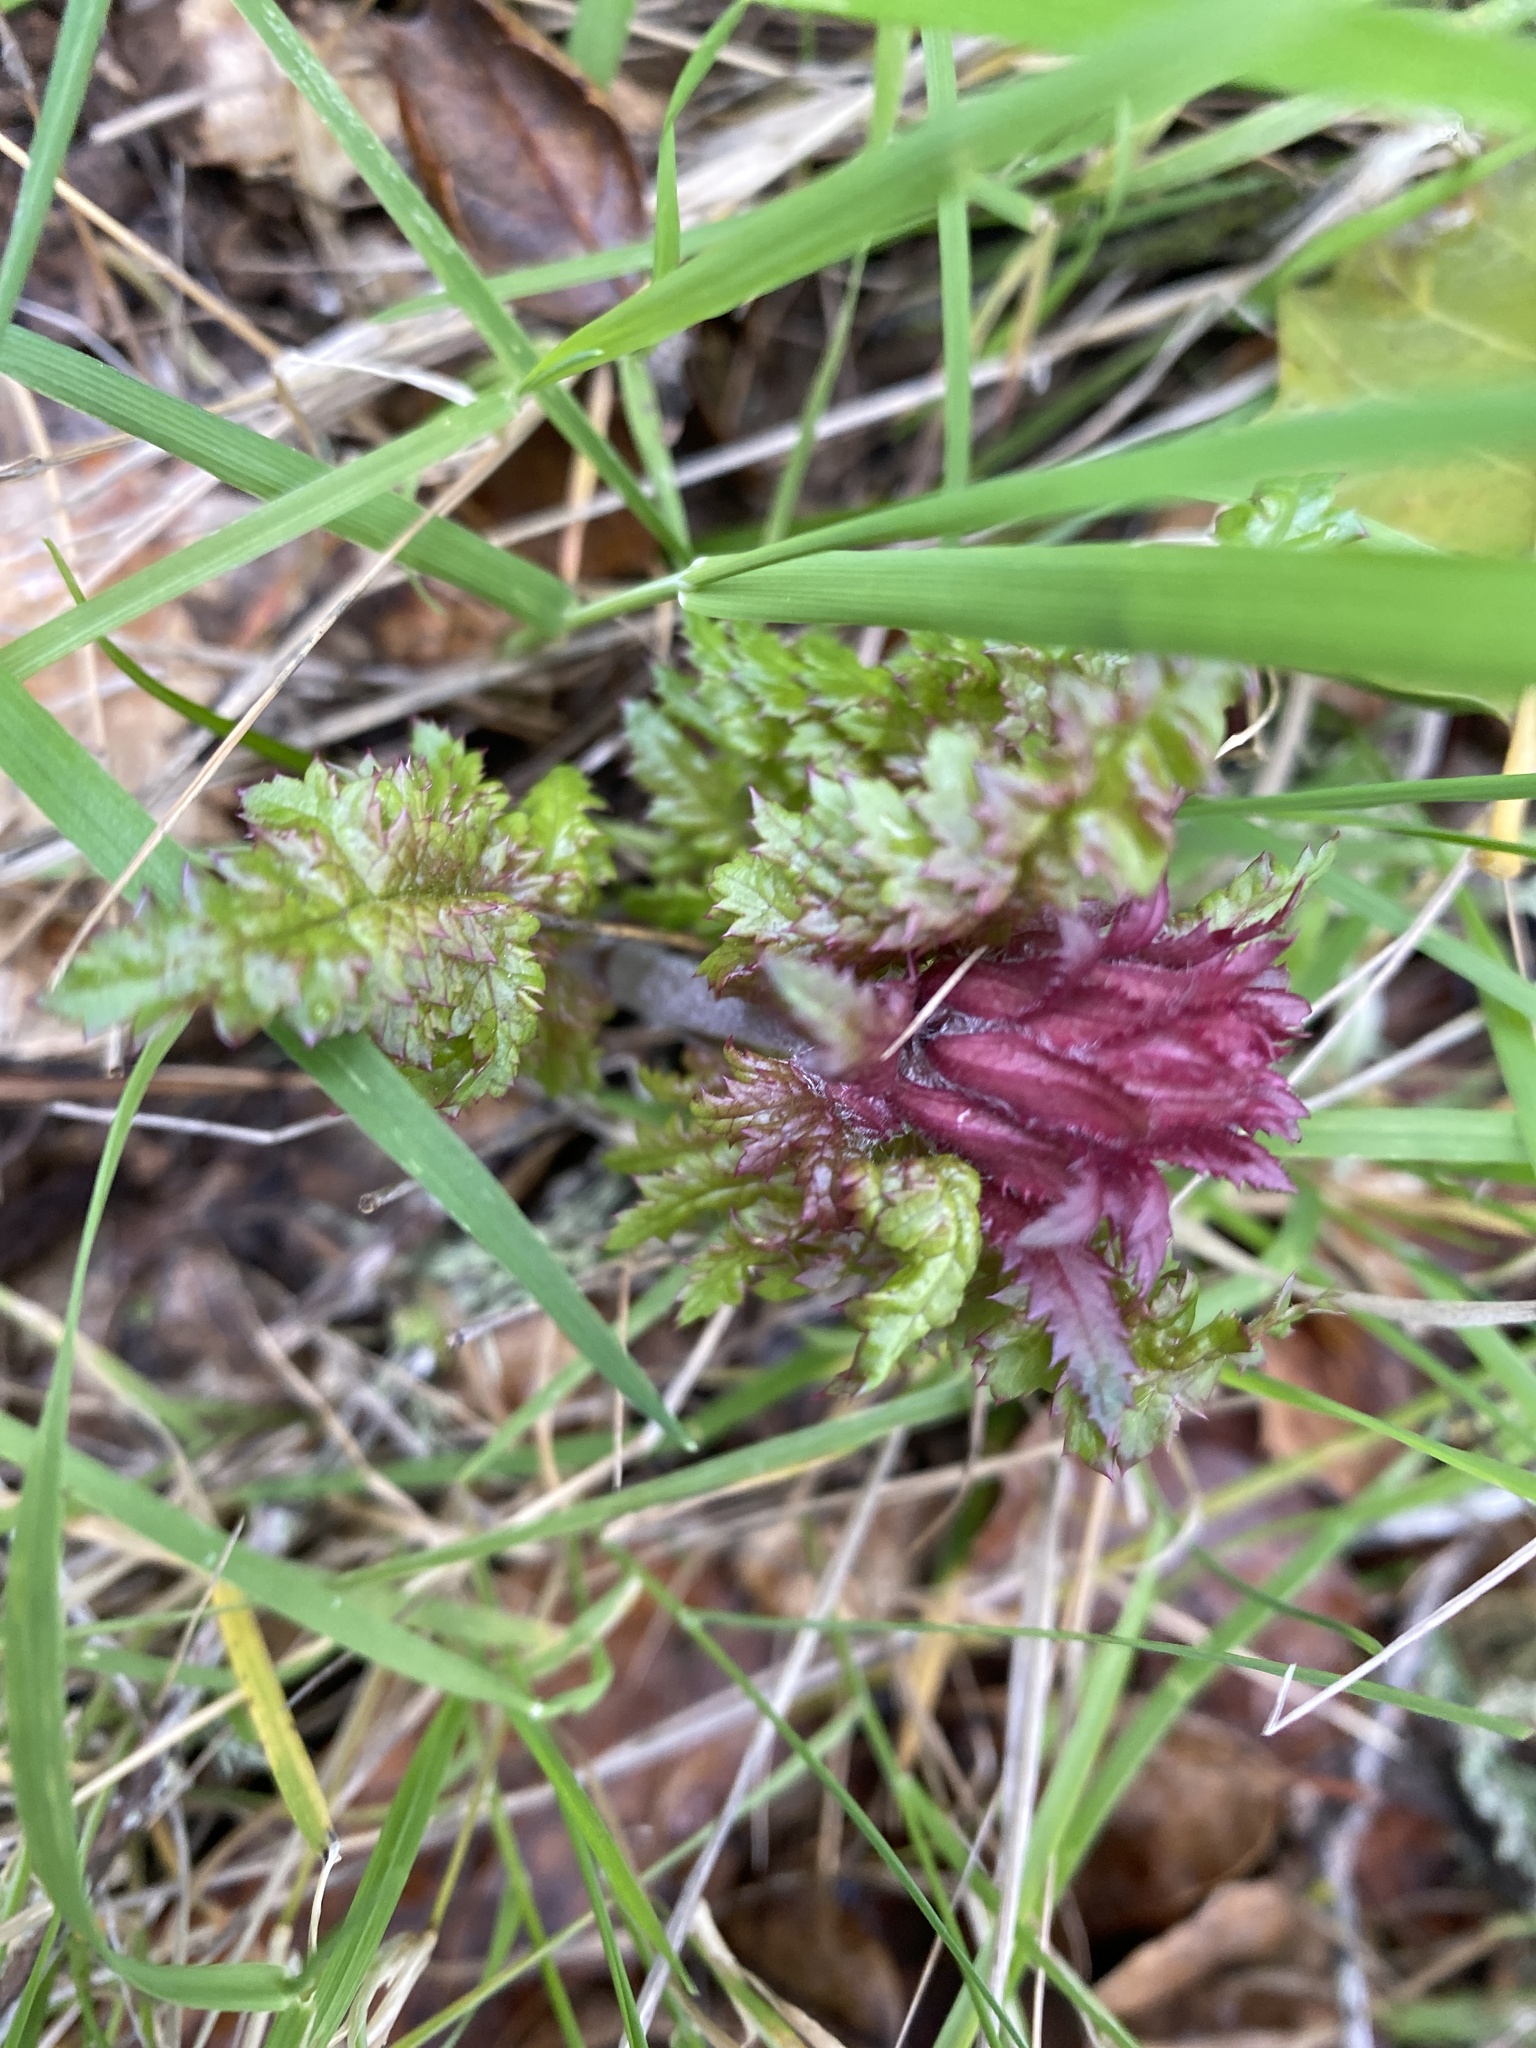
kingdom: Plantae
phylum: Tracheophyta
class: Magnoliopsida
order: Lamiales
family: Orobanchaceae
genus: Pedicularis
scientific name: Pedicularis densiflora
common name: Indian warrior
